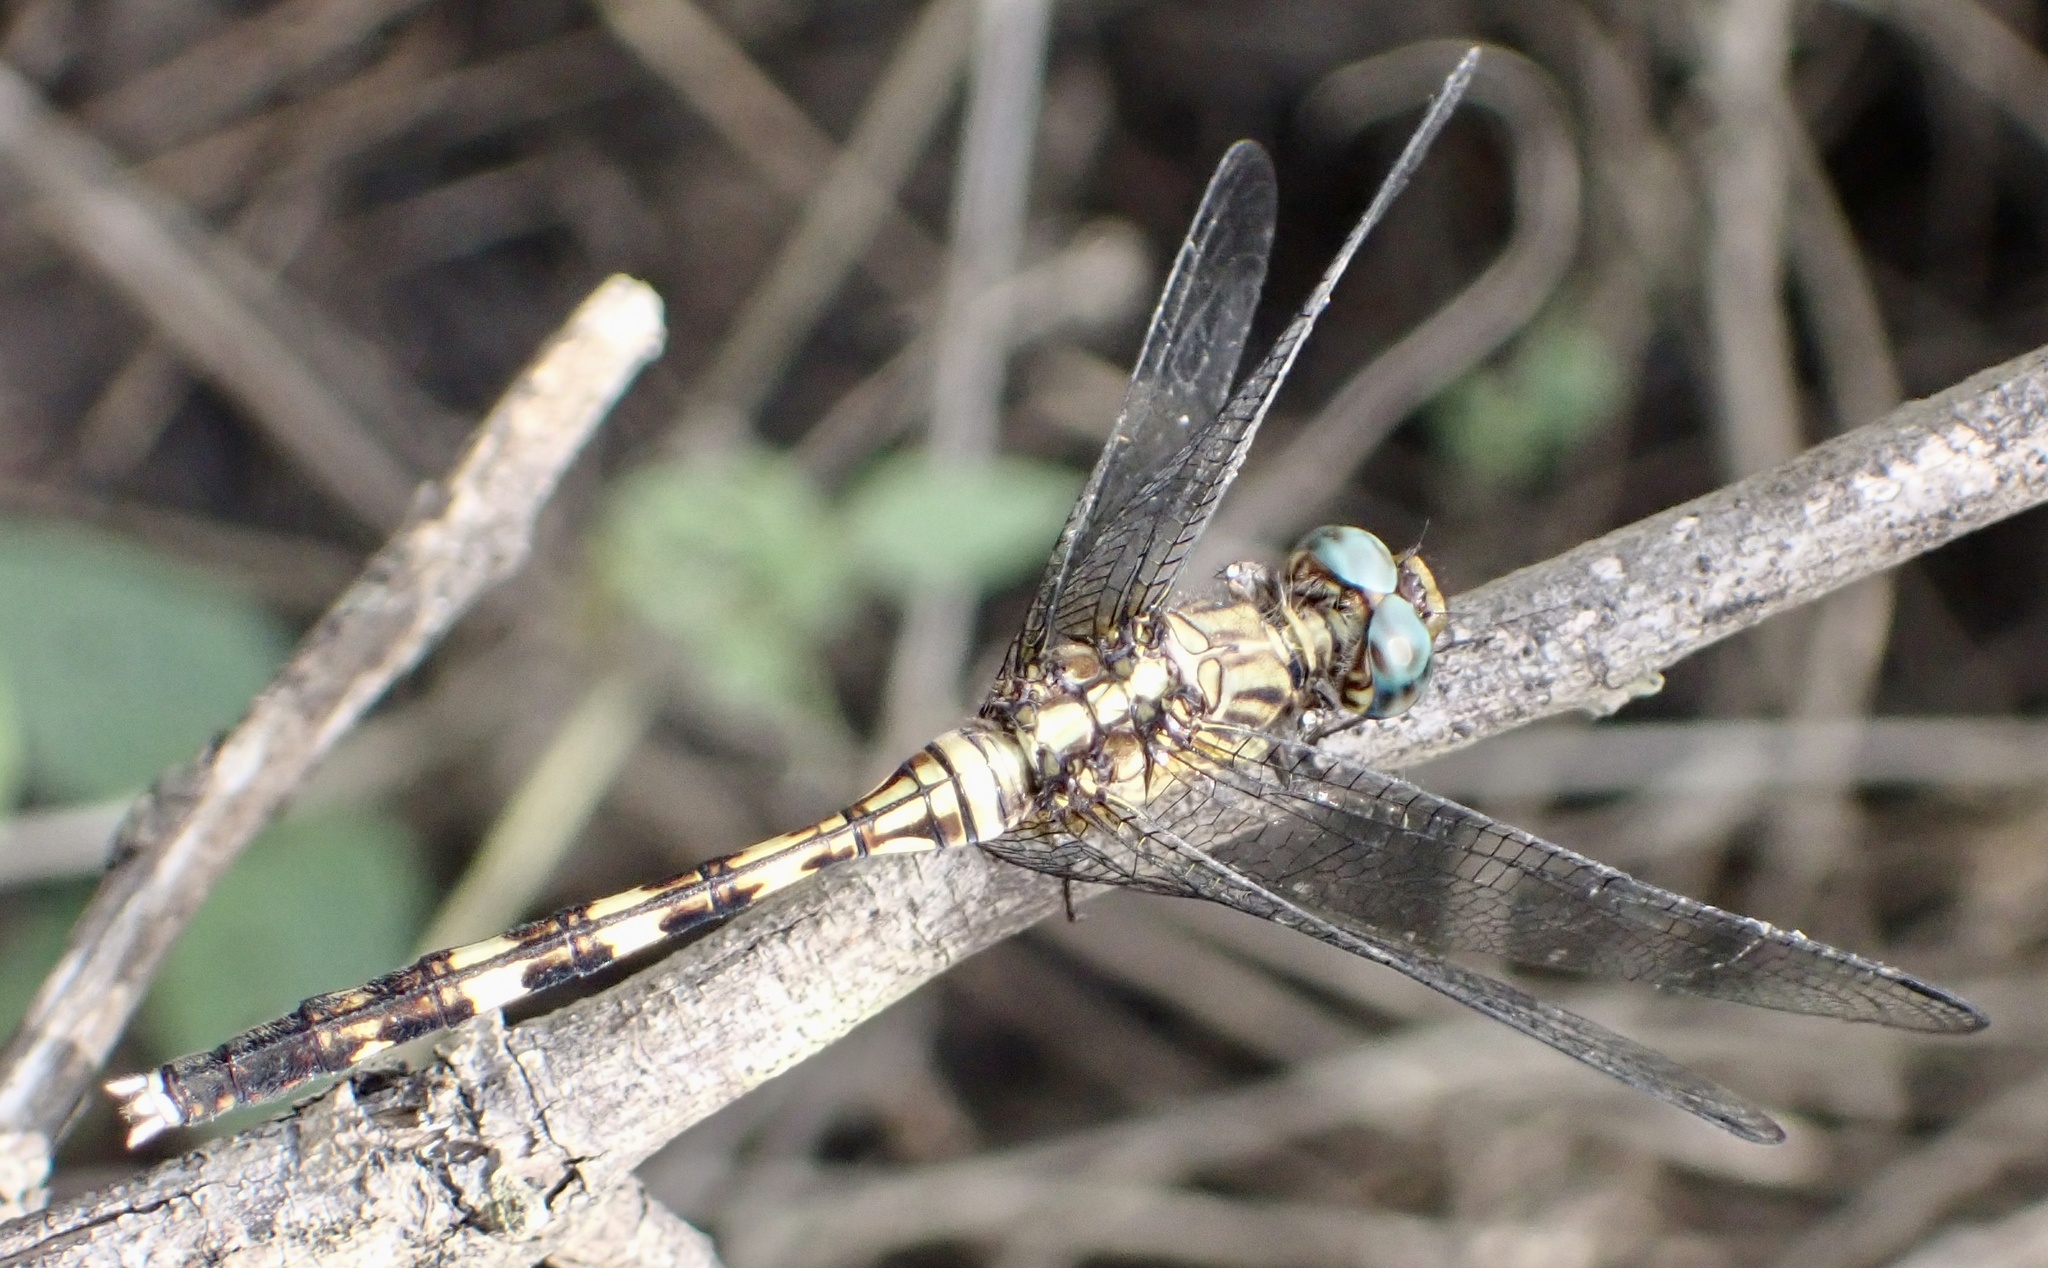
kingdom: Animalia
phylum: Arthropoda
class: Insecta
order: Odonata
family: Libellulidae
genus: Orthetrum
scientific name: Orthetrum brachiale
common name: Banded skimmer
